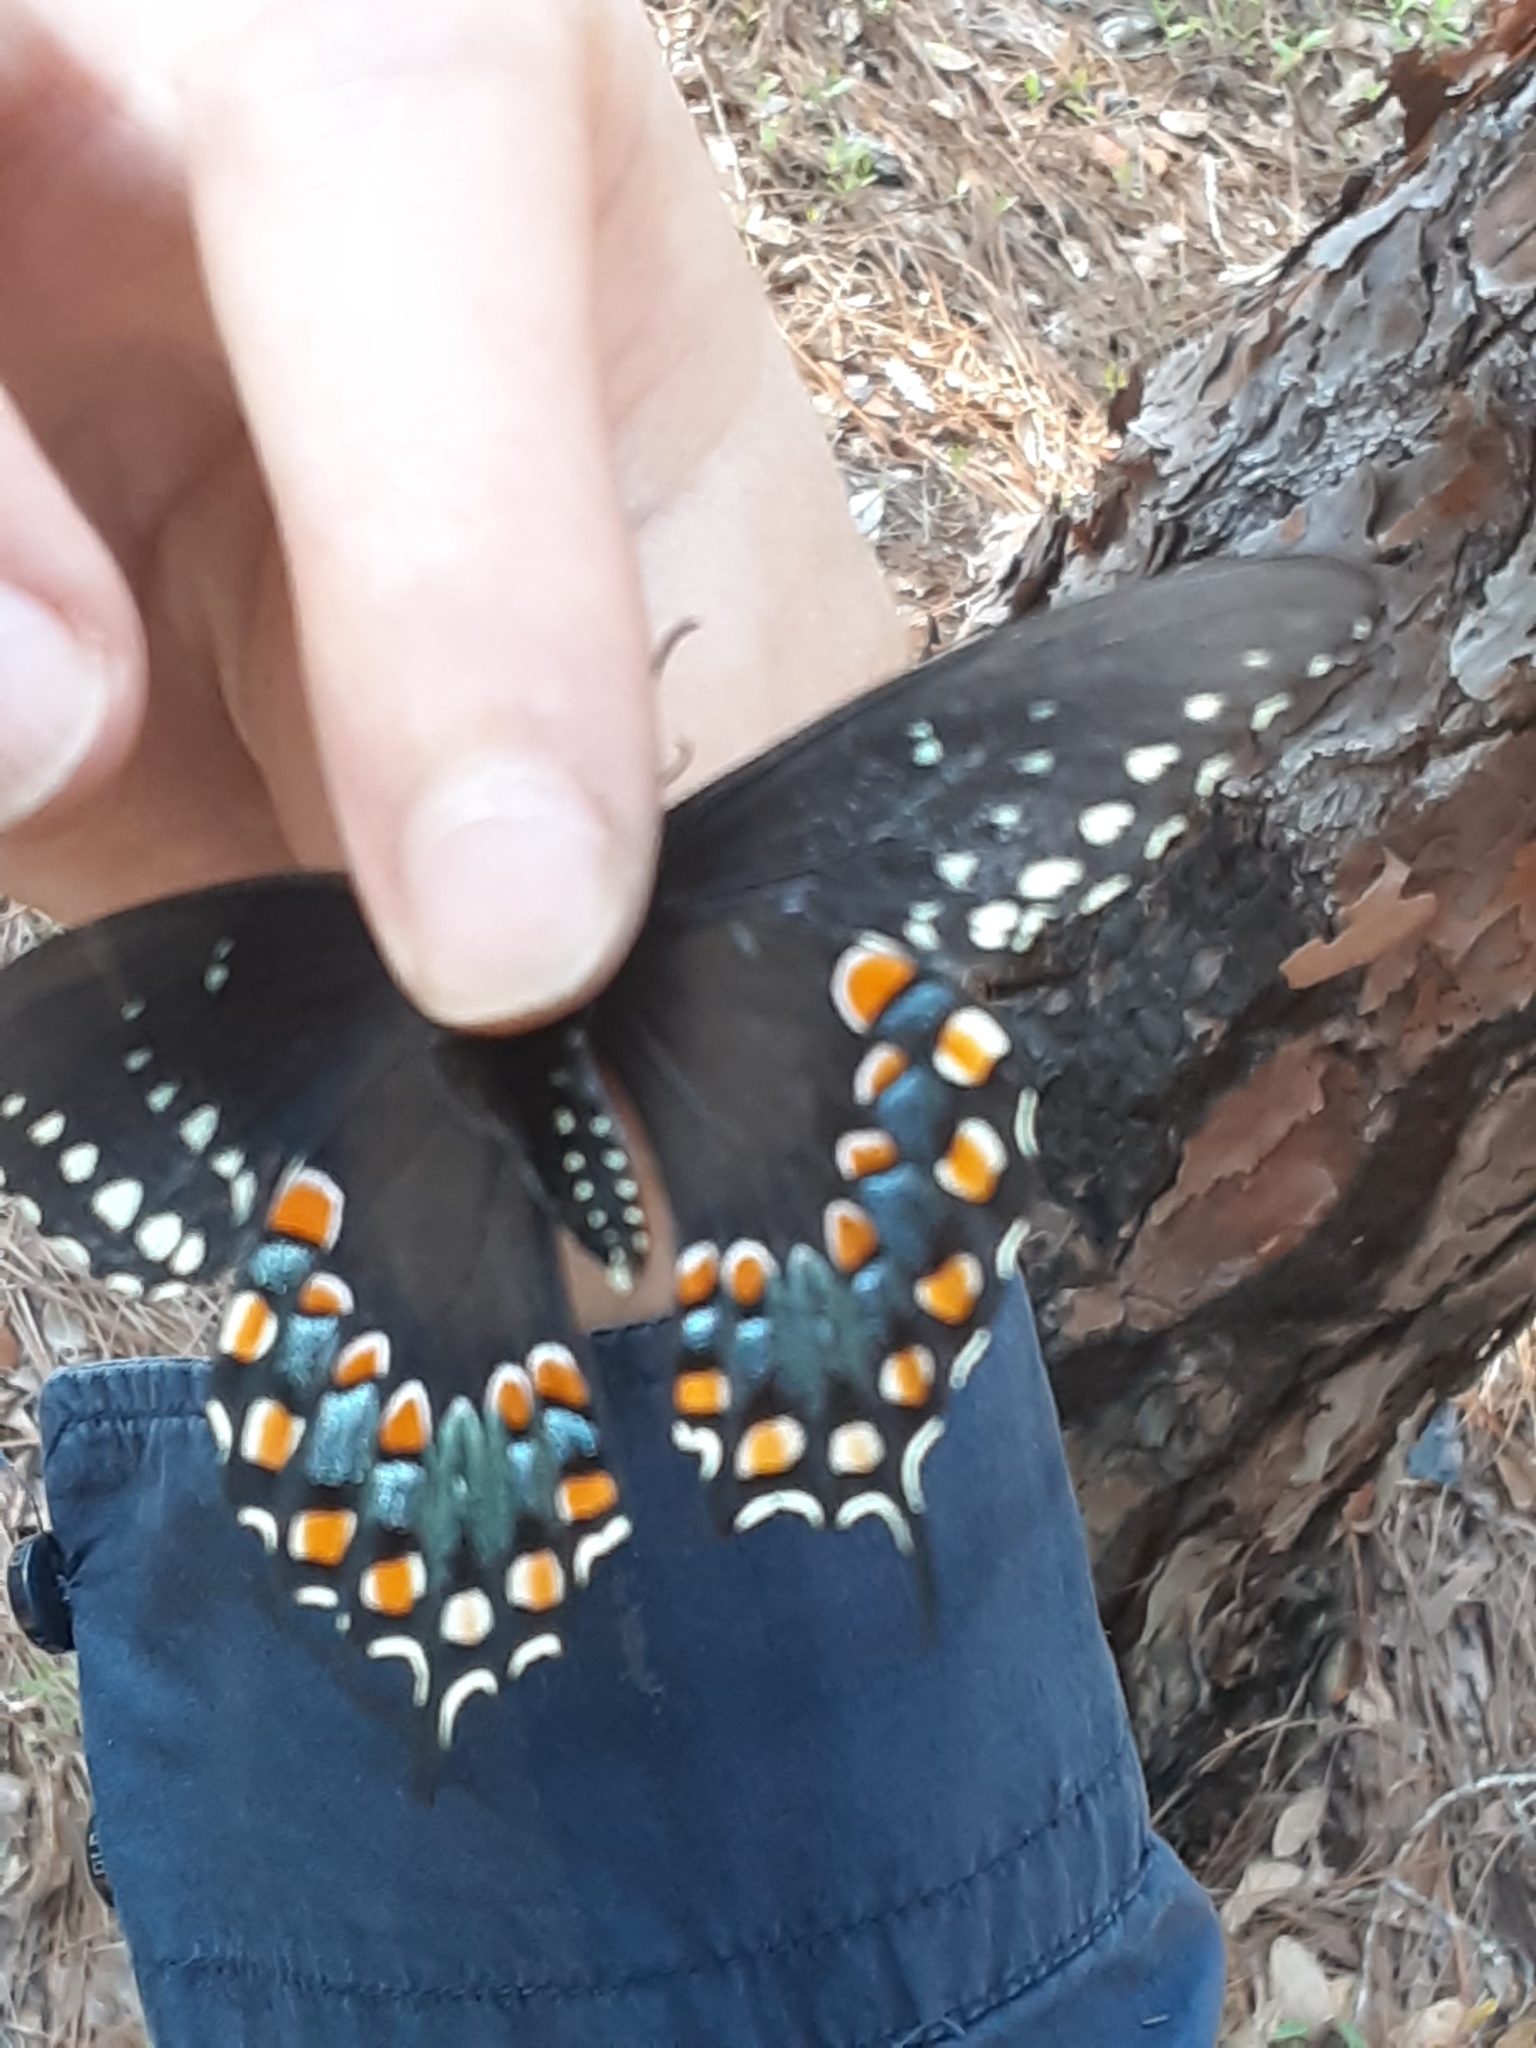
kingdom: Animalia
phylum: Arthropoda
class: Insecta
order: Lepidoptera
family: Papilionidae
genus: Papilio
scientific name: Papilio troilus
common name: Spicebush swallowtail
